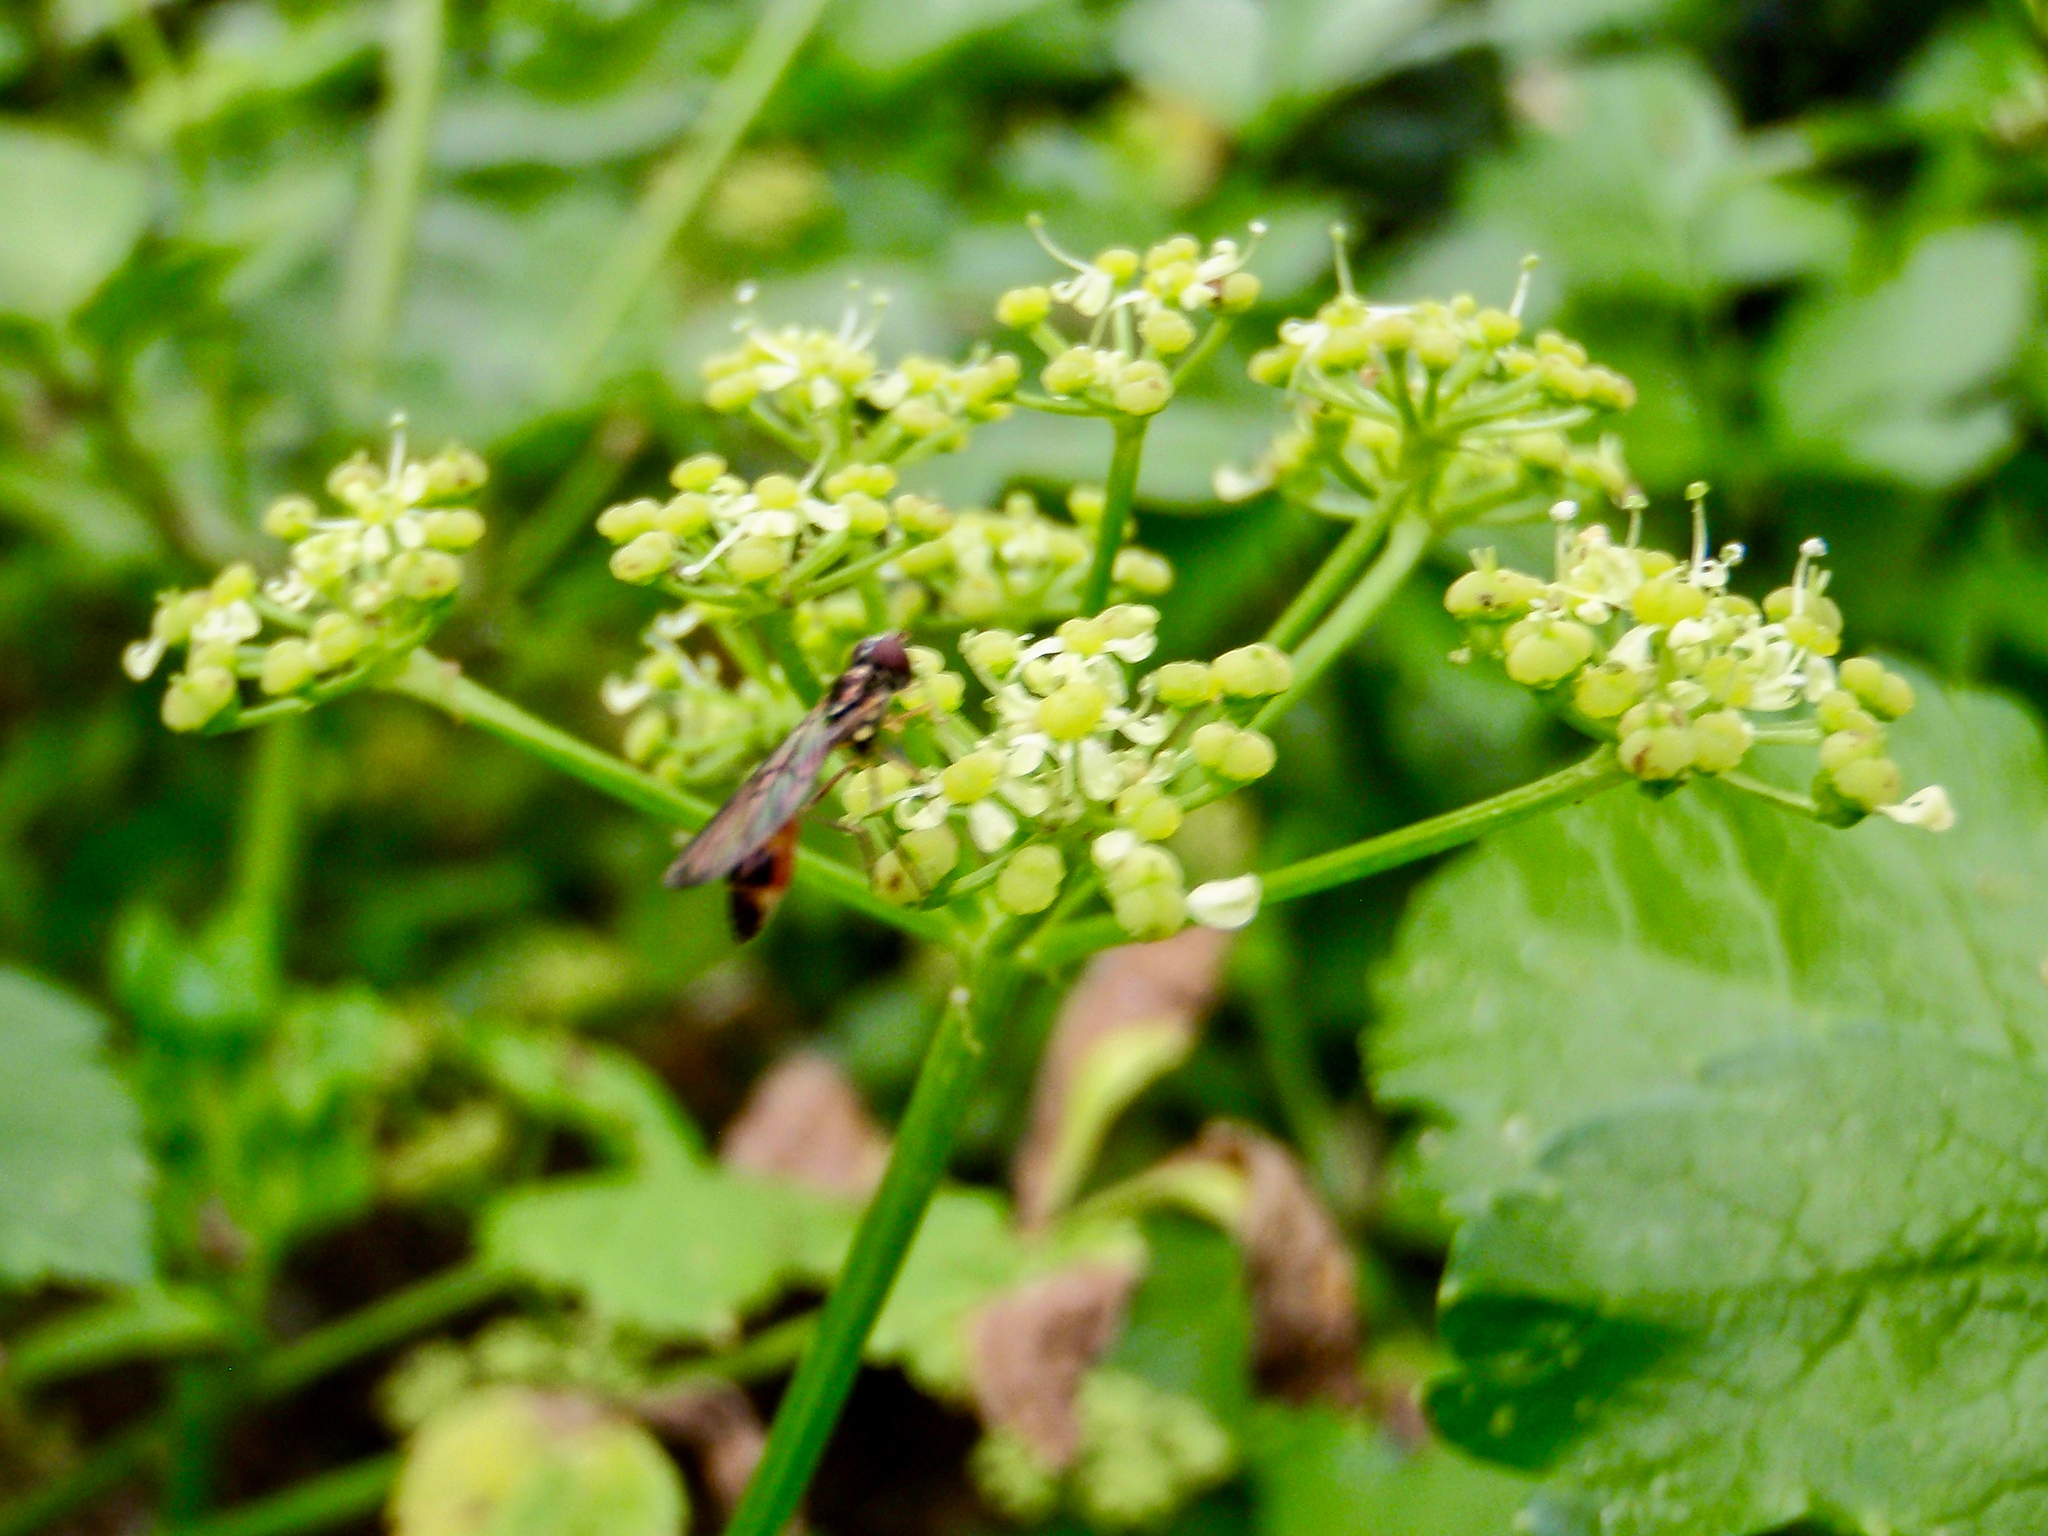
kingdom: Animalia
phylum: Arthropoda
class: Insecta
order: Diptera
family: Syrphidae
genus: Baccha
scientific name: Baccha elongata
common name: Common dainty
